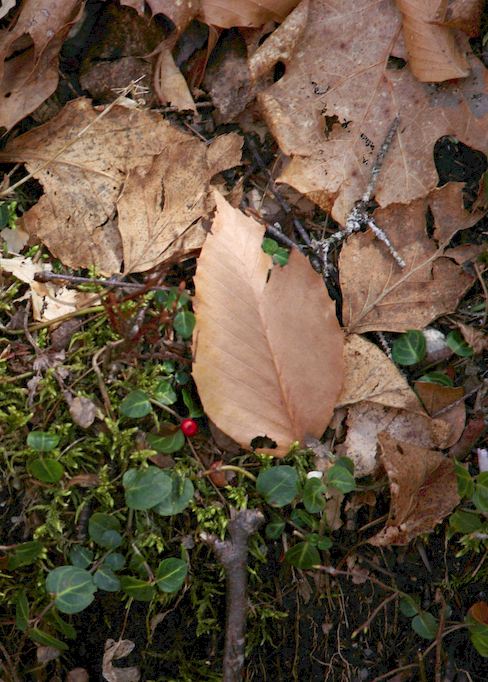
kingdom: Plantae
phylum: Tracheophyta
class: Magnoliopsida
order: Gentianales
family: Rubiaceae
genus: Mitchella
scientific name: Mitchella repens
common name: Partridge-berry
